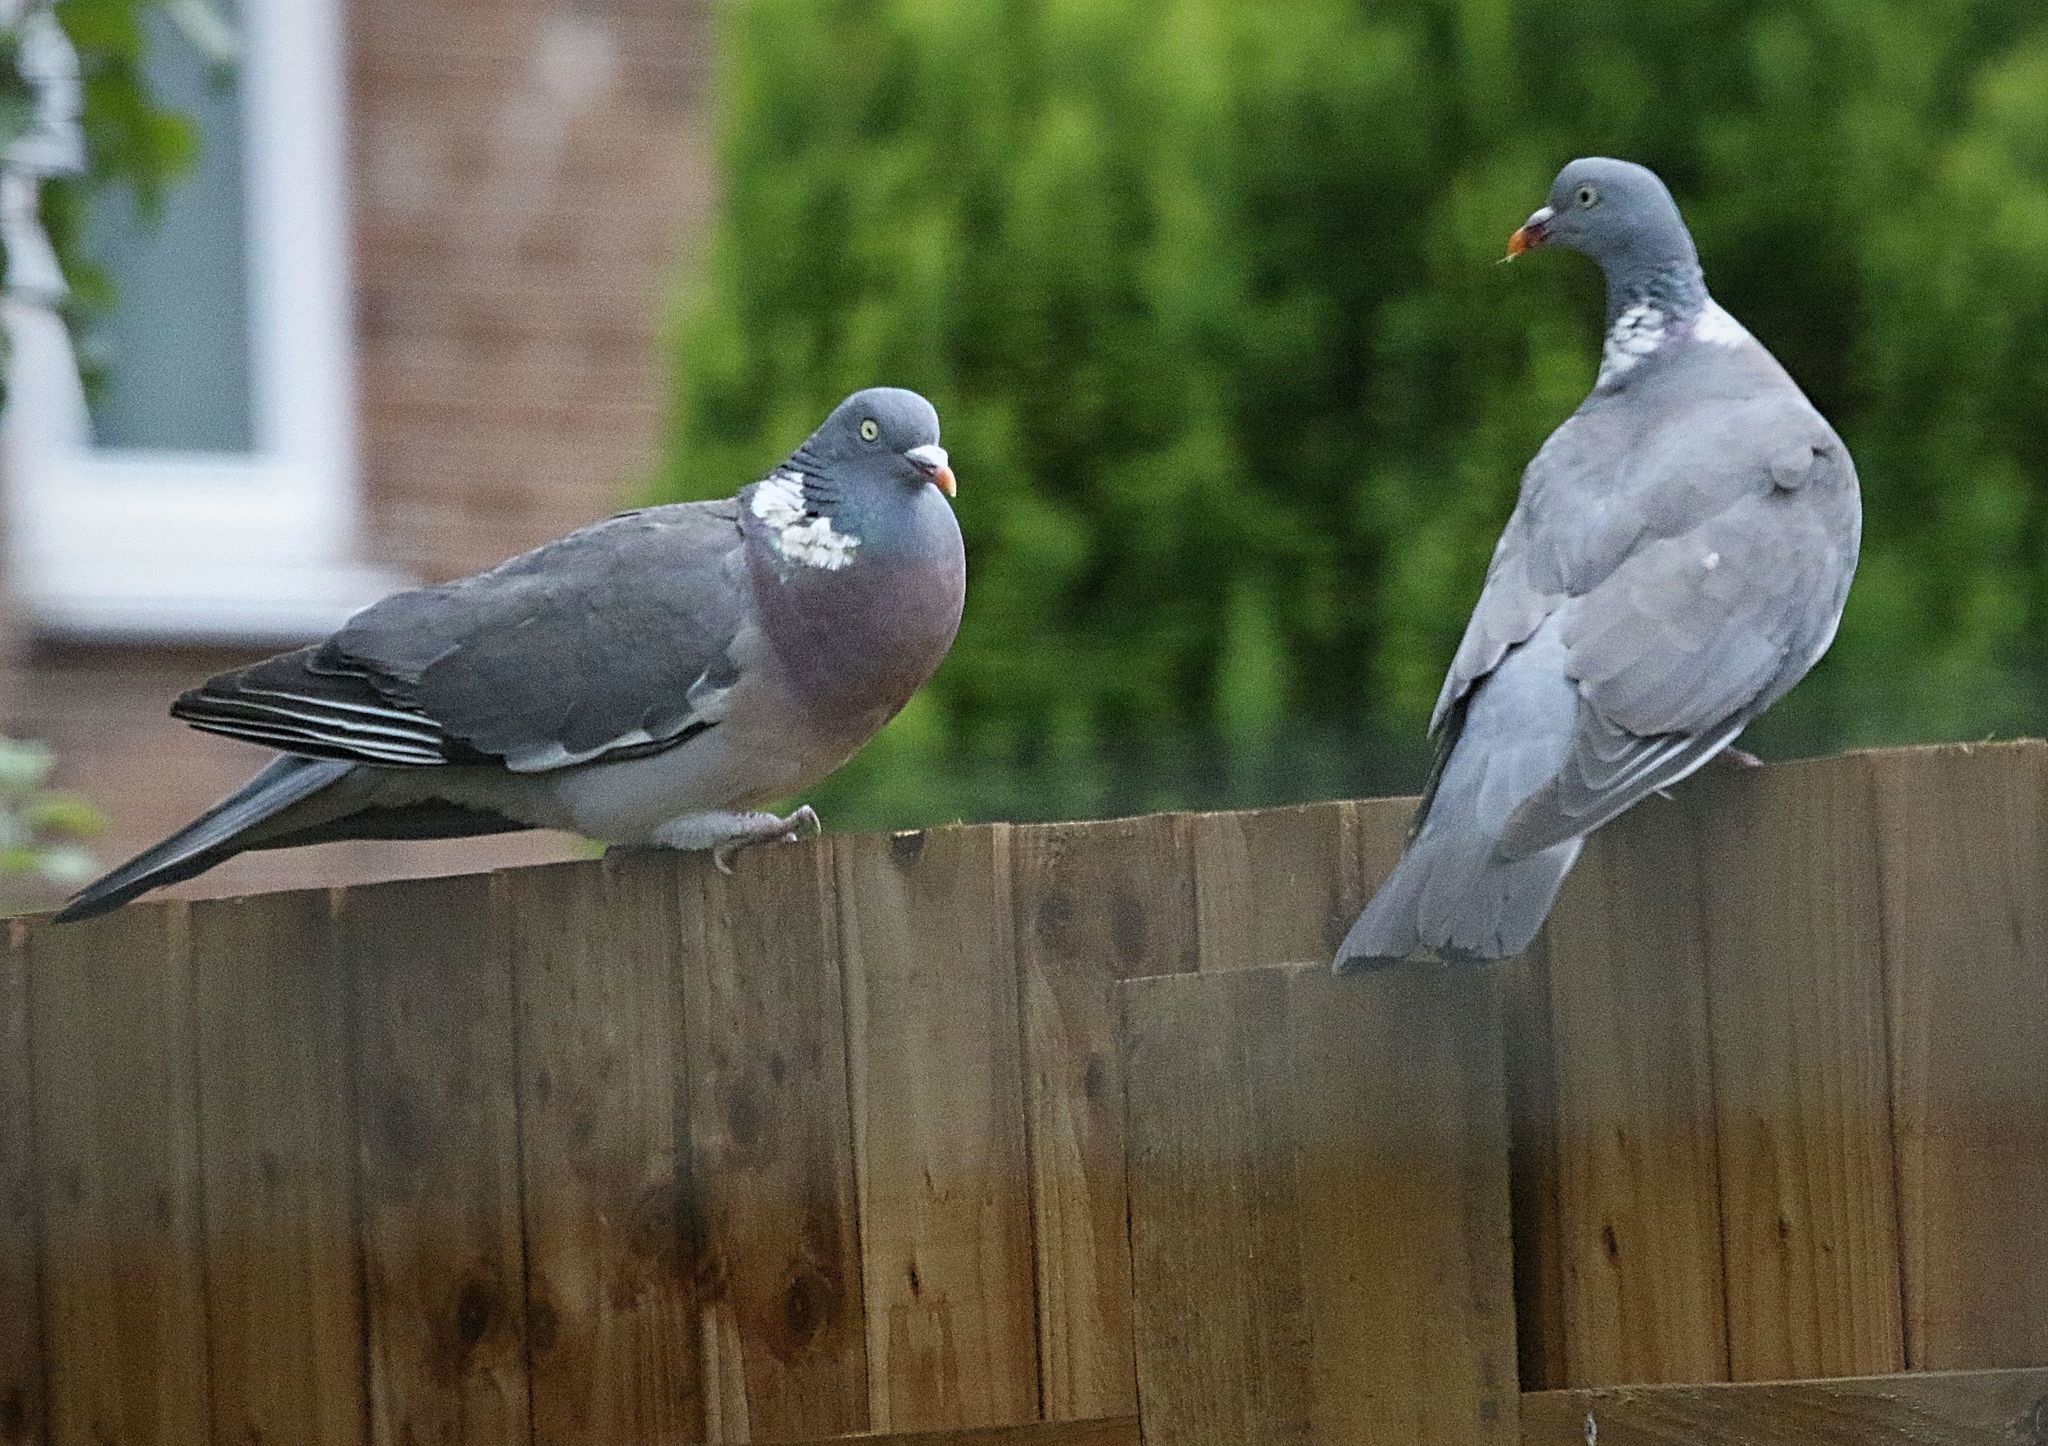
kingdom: Animalia
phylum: Chordata
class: Aves
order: Columbiformes
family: Columbidae
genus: Columba
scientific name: Columba palumbus
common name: Common wood pigeon
